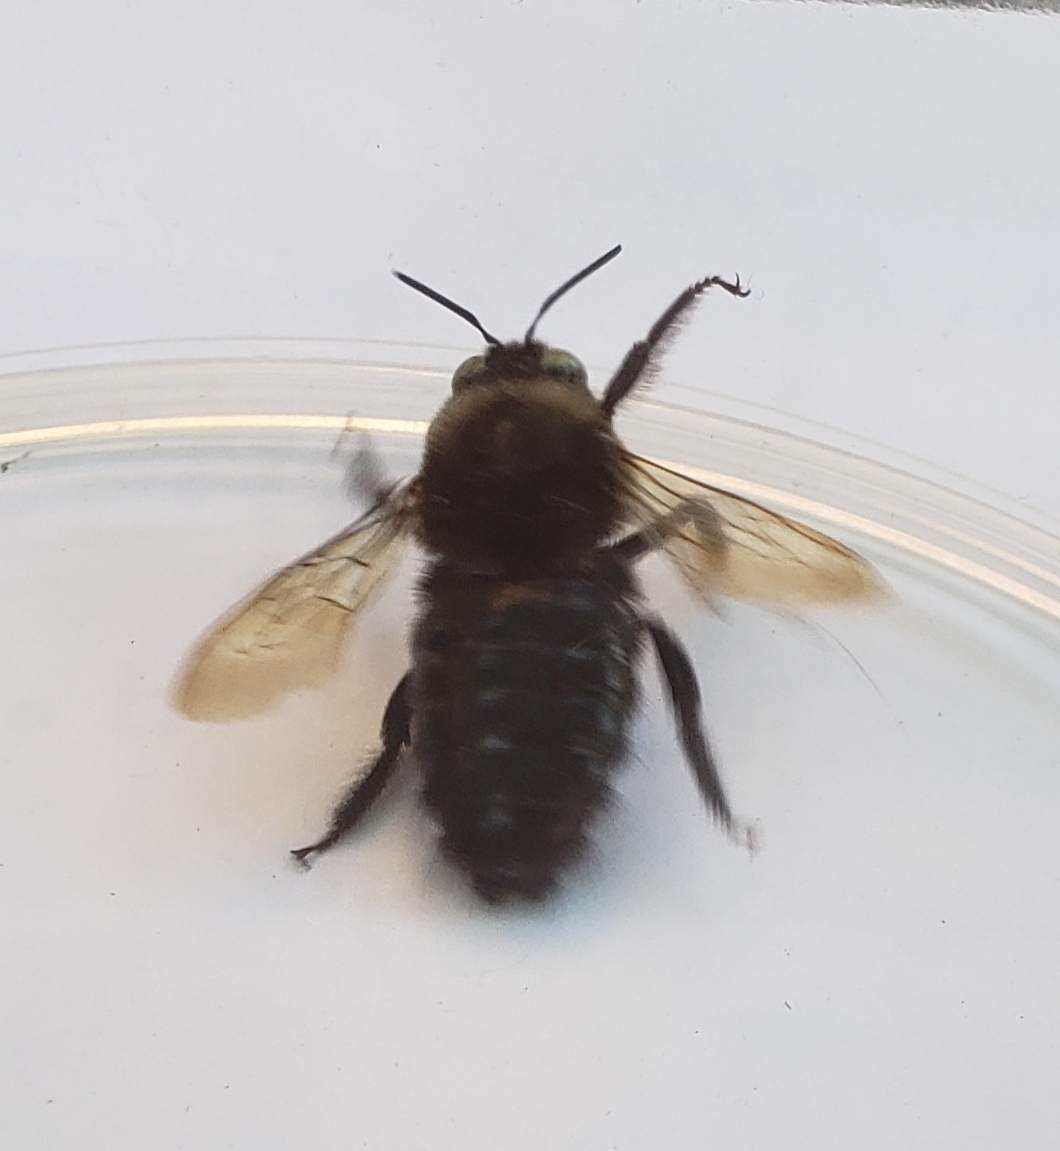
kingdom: Animalia
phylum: Arthropoda
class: Insecta
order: Hymenoptera
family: Apidae
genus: Xylocopa
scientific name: Xylocopa tabaniformis
